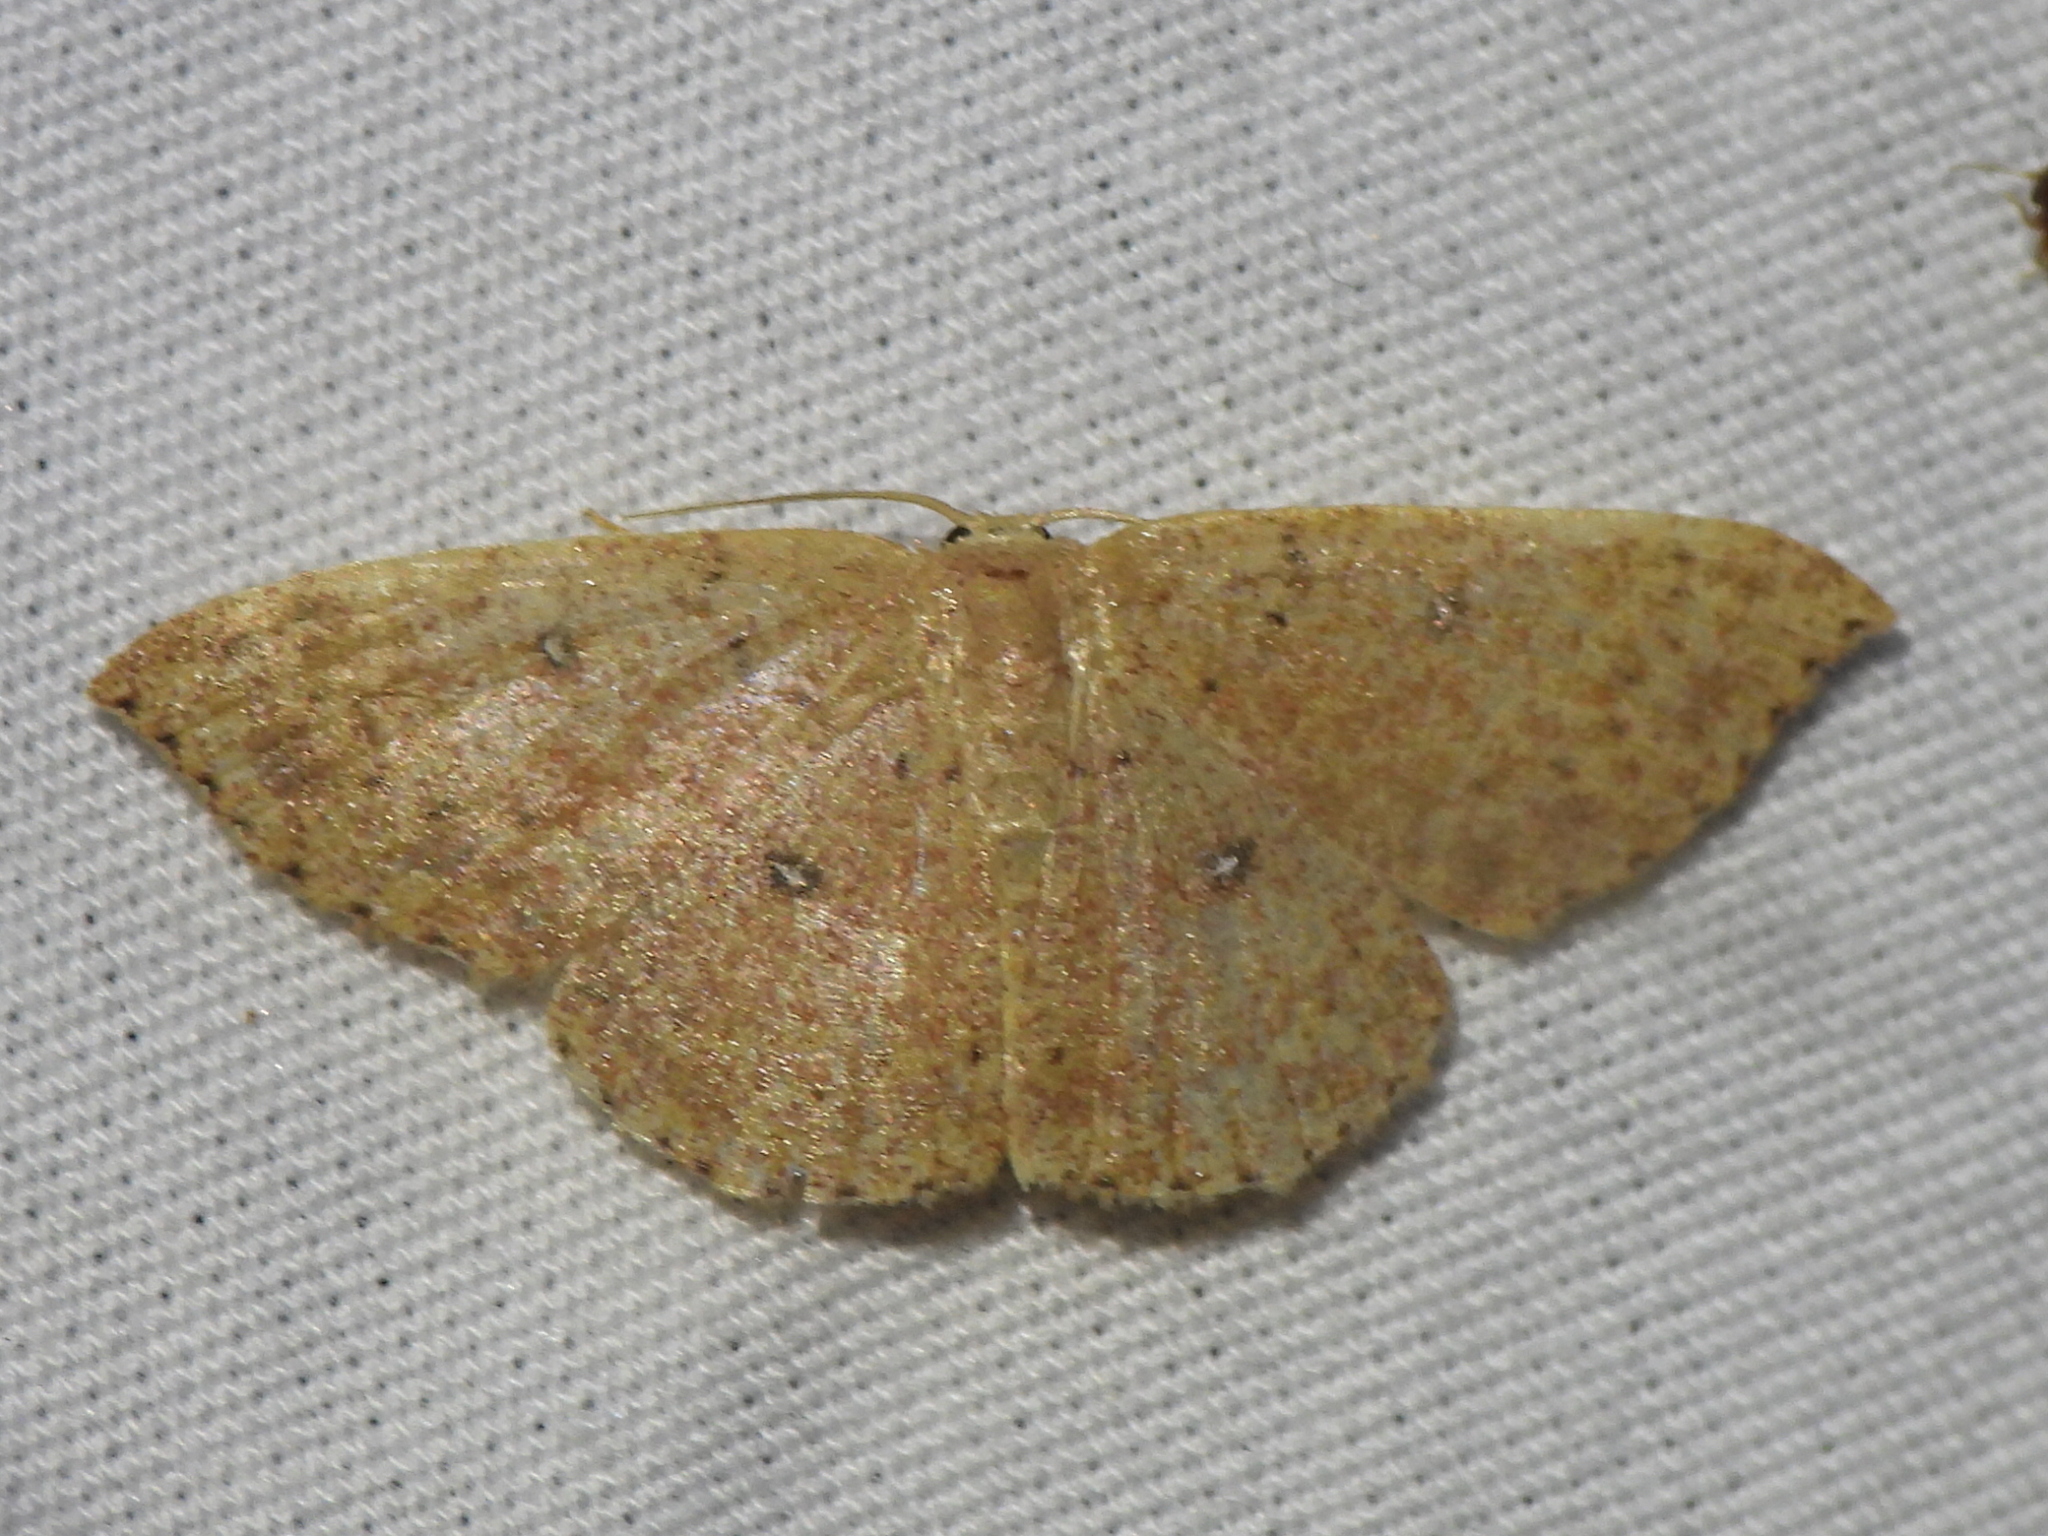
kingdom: Animalia
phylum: Arthropoda
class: Insecta
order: Lepidoptera
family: Geometridae
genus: Cyclophora
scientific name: Cyclophora packardi
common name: Packard's wave
